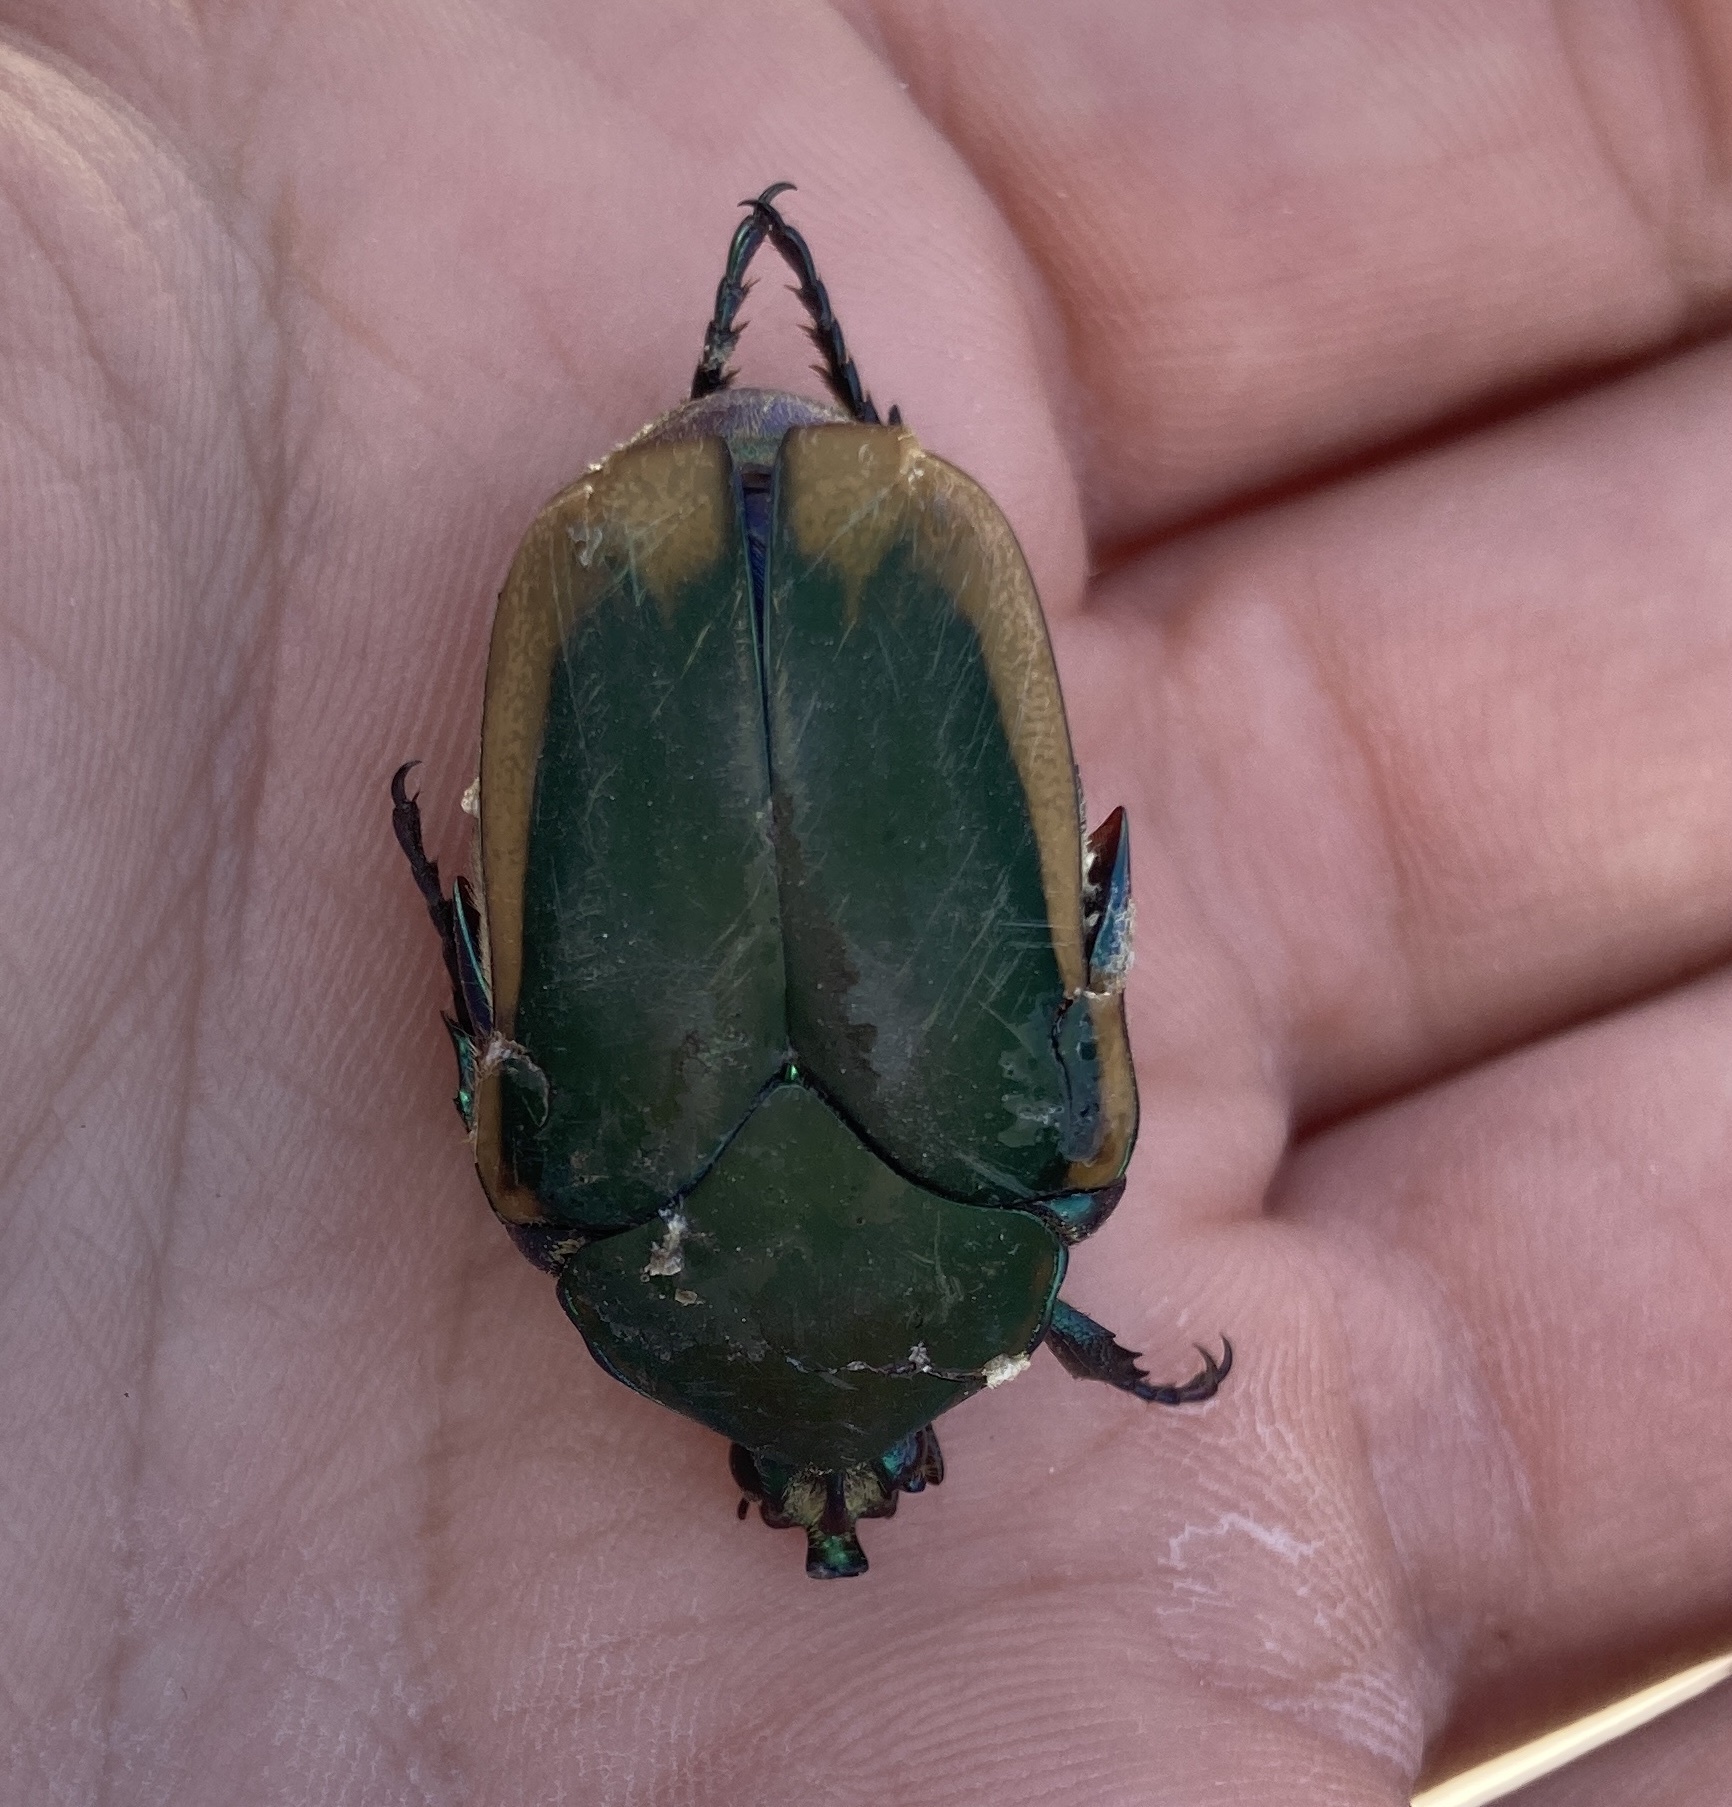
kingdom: Animalia
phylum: Arthropoda
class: Insecta
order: Coleoptera
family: Scarabaeidae
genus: Cotinis
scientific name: Cotinis mutabilis
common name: Figeater beetle
